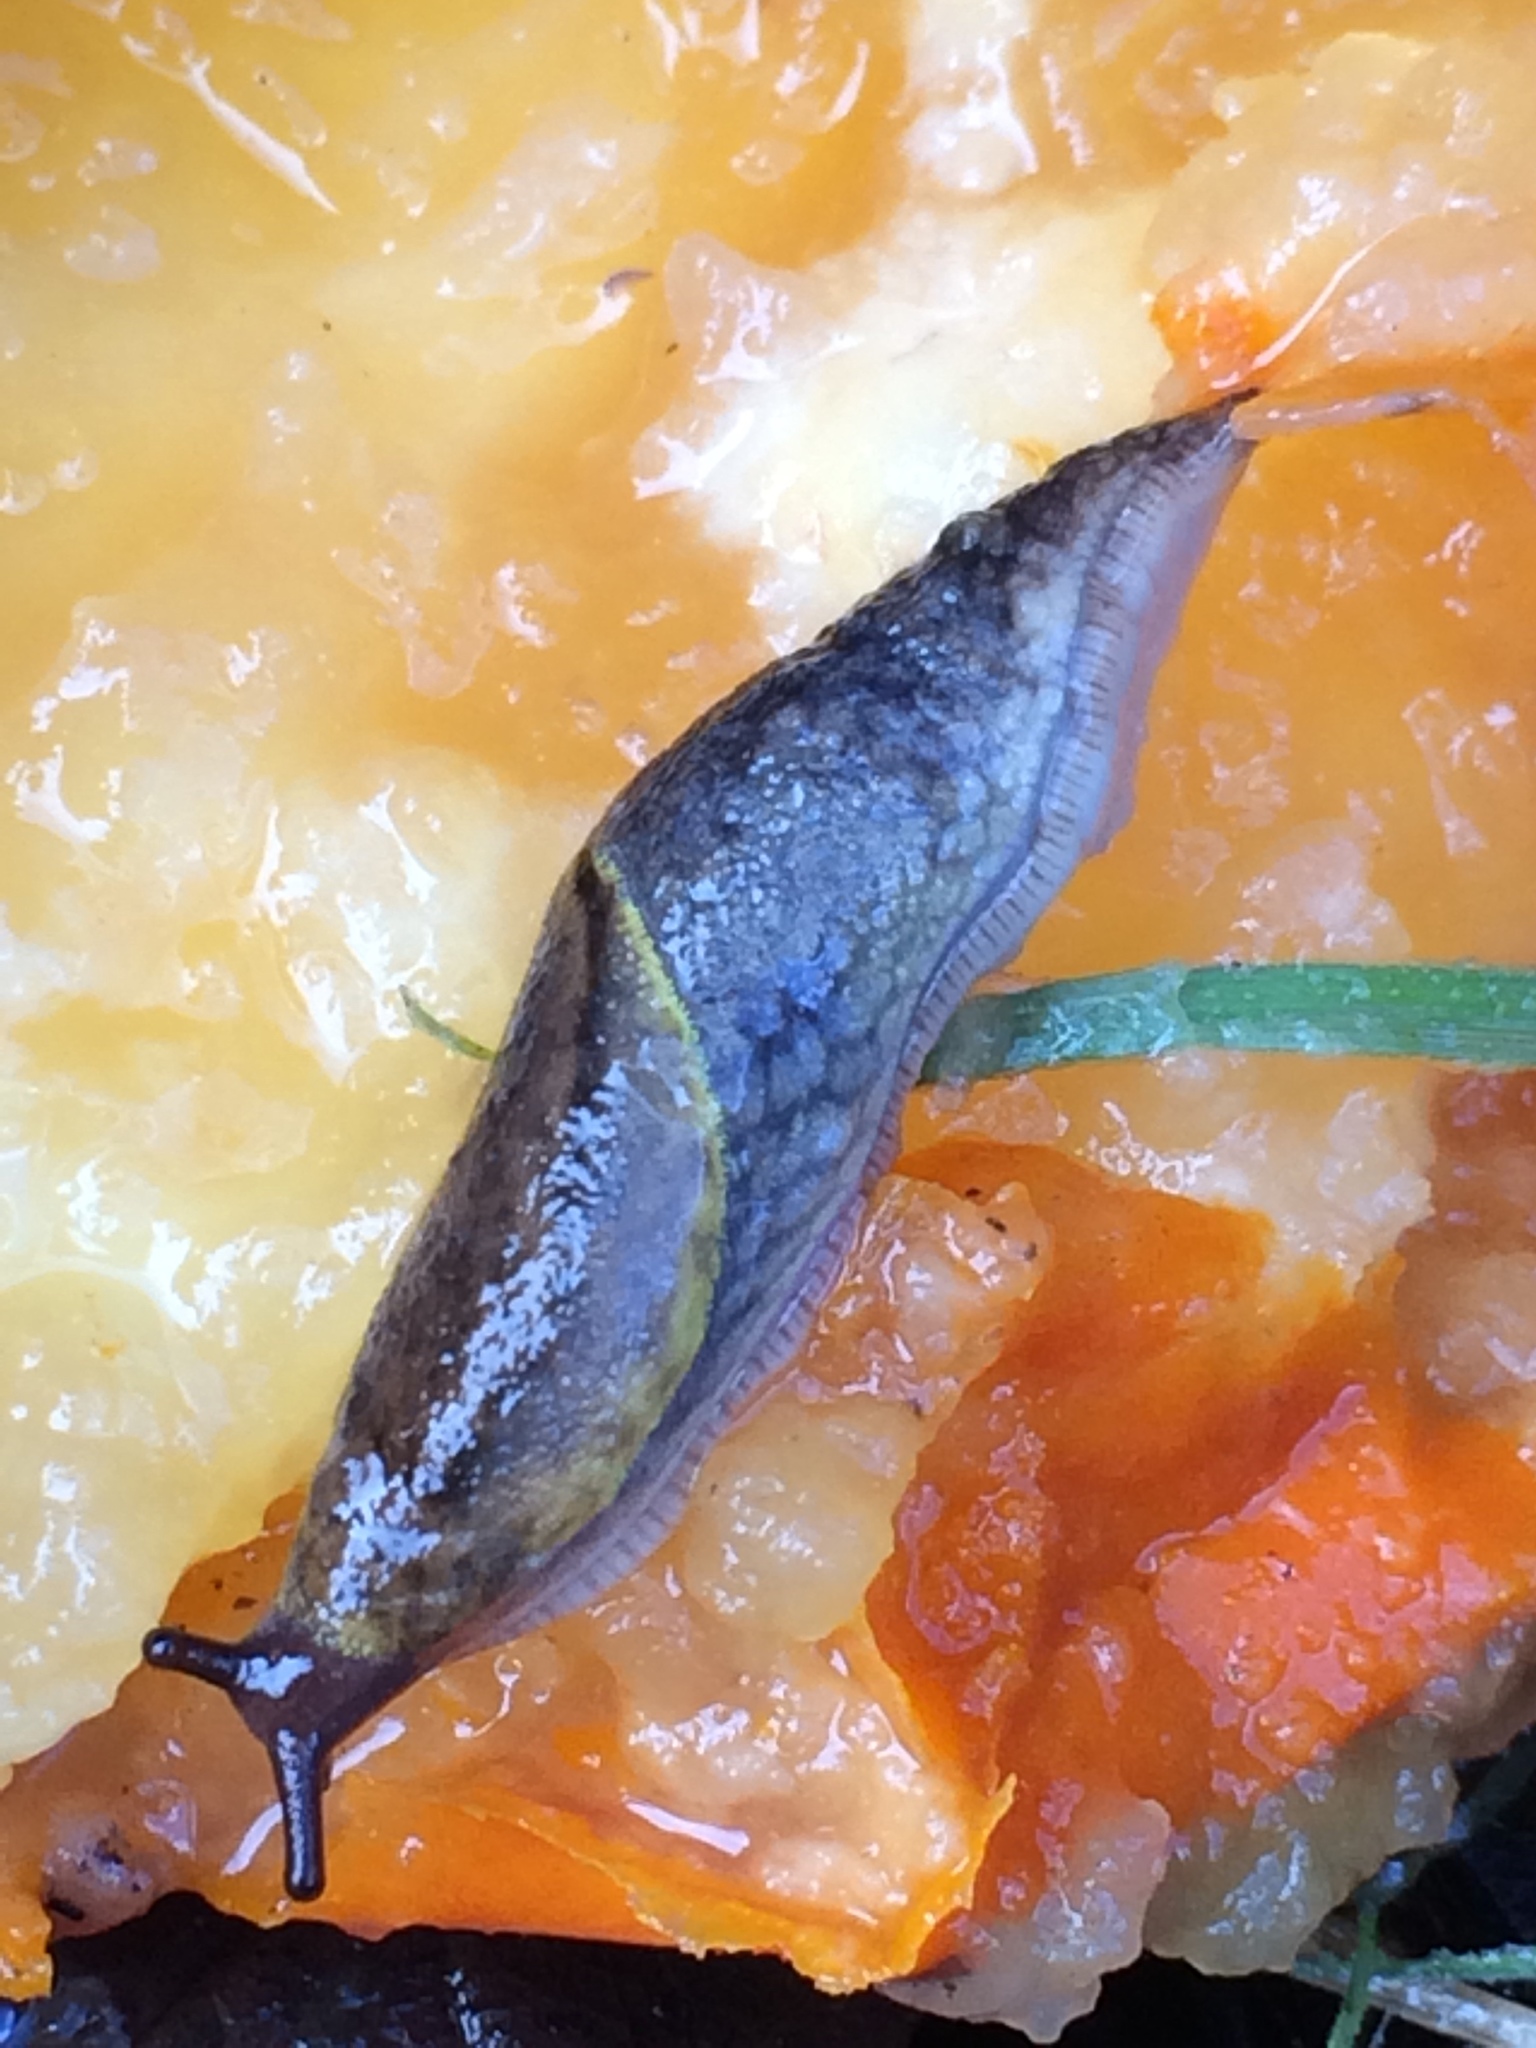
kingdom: Animalia
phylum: Mollusca
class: Gastropoda
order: Stylommatophora
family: Ariolimacidae
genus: Prophysaon
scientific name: Prophysaon andersonii
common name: Reticulate taildropper
